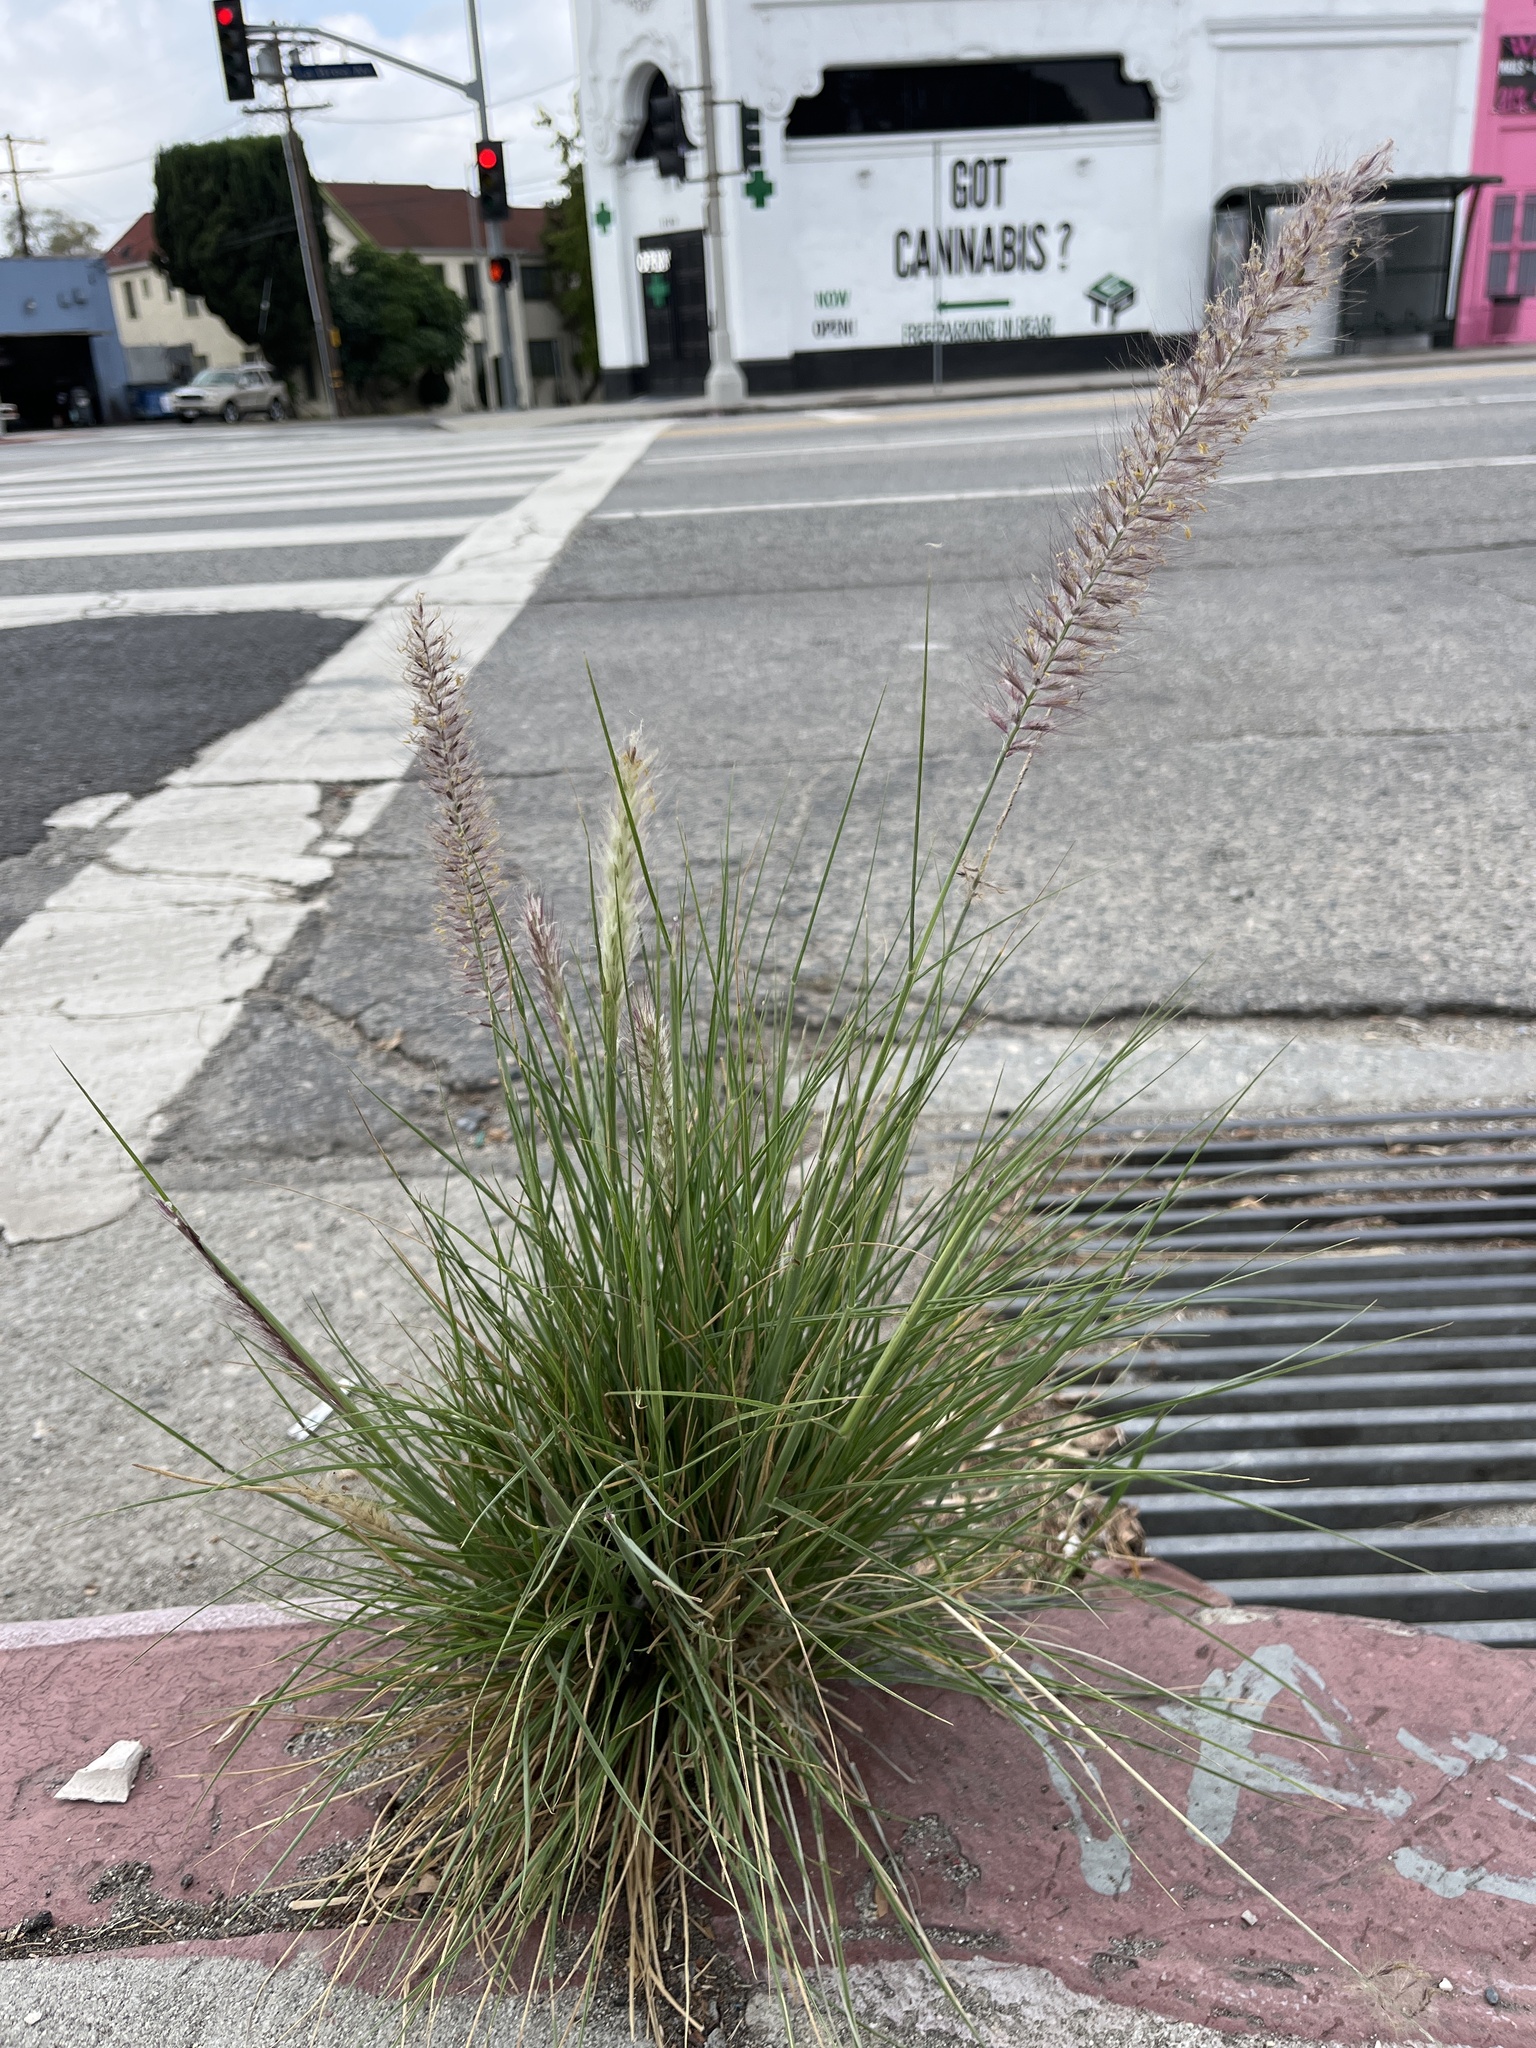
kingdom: Plantae
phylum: Tracheophyta
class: Liliopsida
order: Poales
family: Poaceae
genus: Cenchrus
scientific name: Cenchrus setaceus
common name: Crimson fountaingrass
